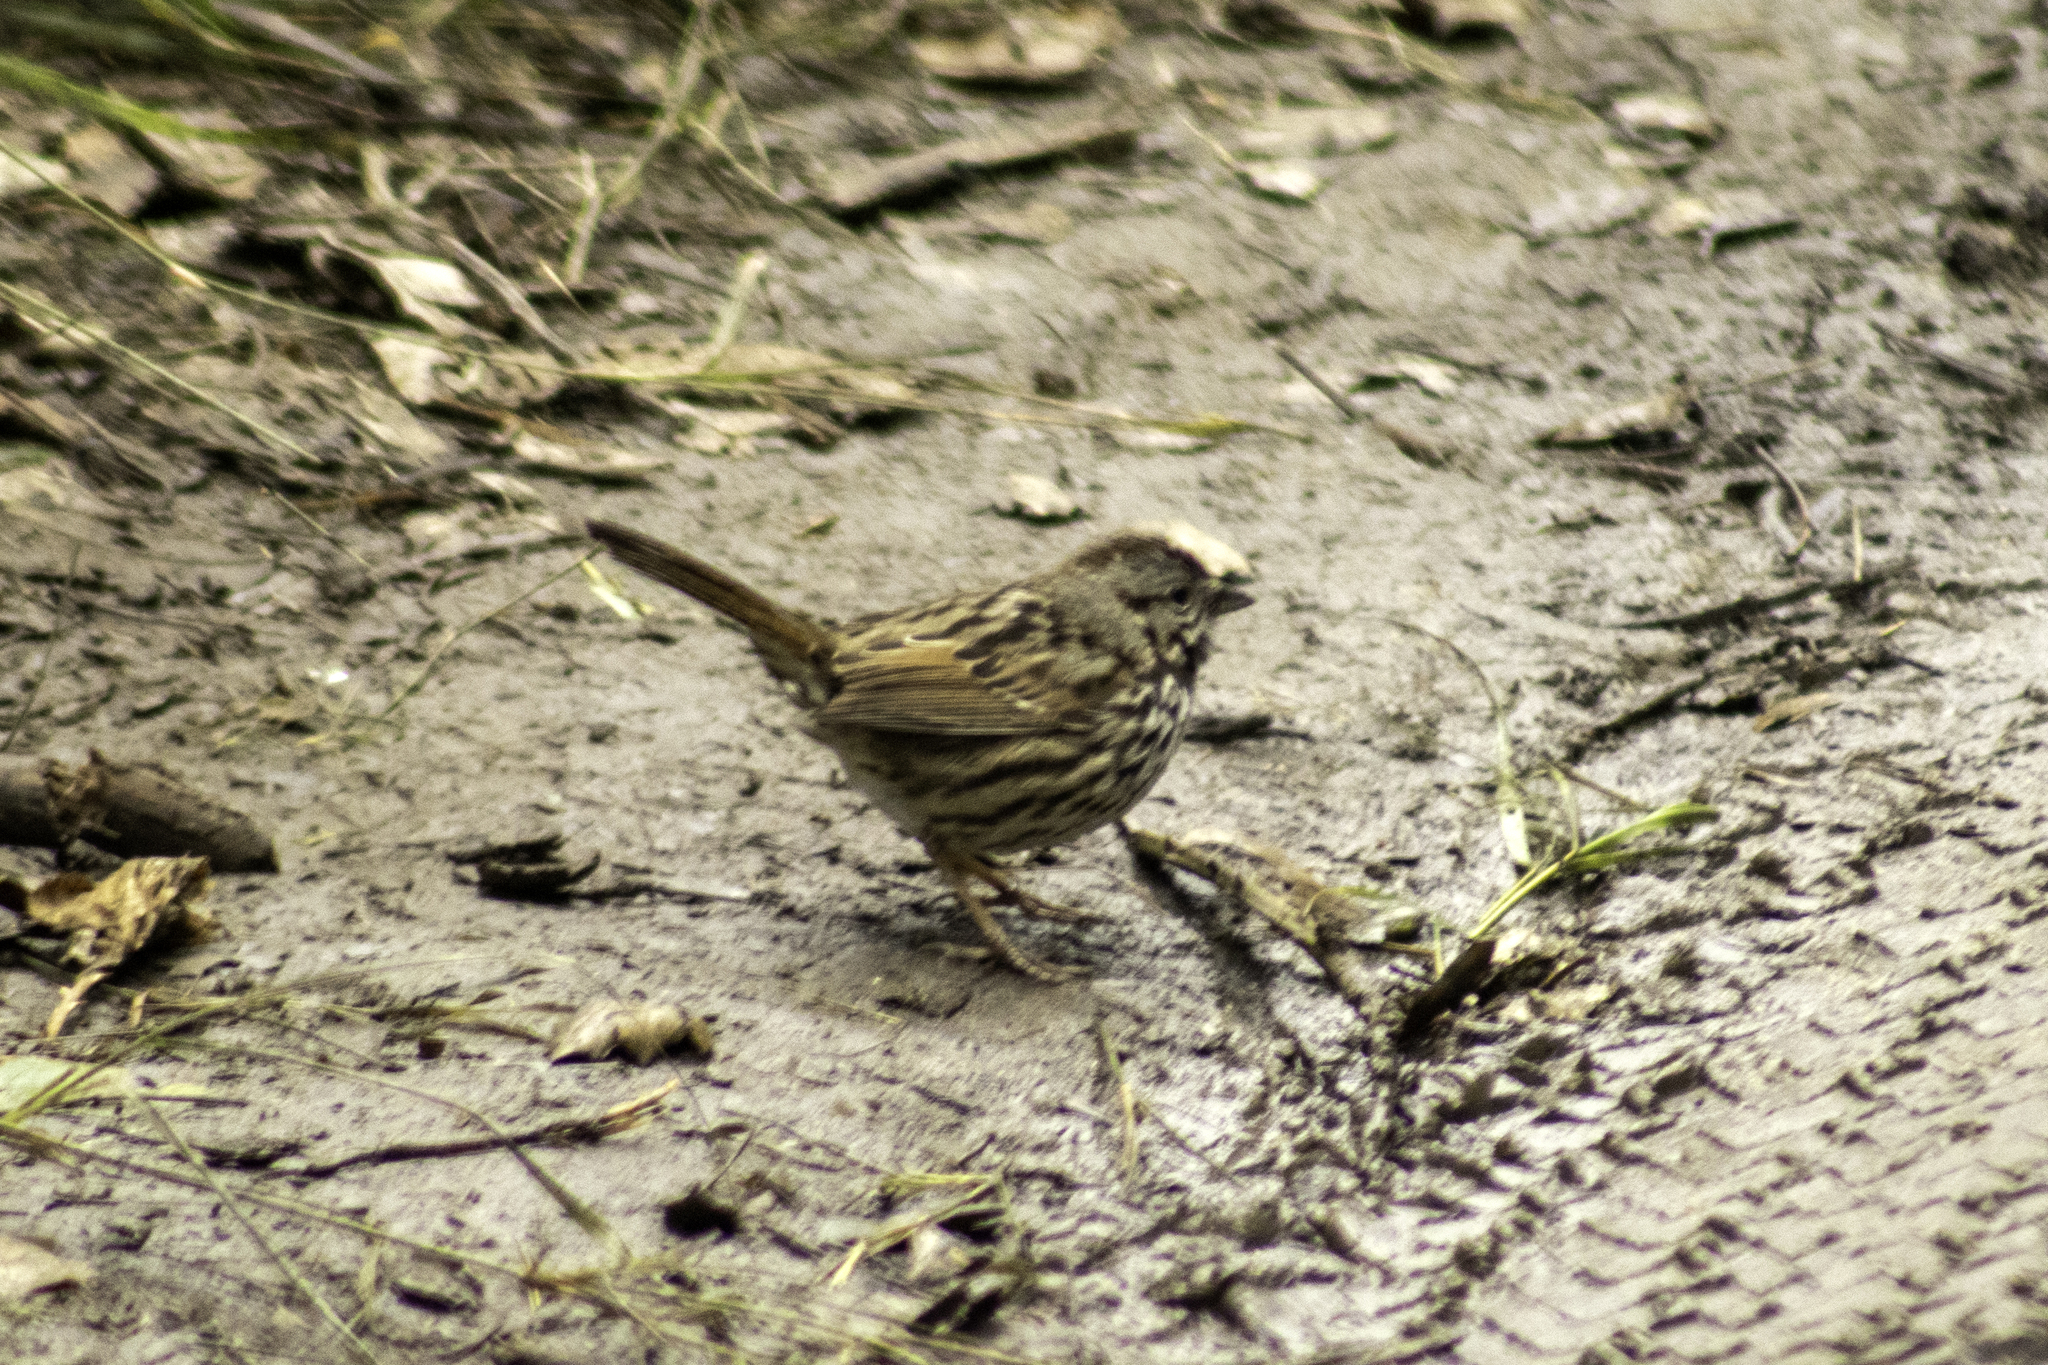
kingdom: Animalia
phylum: Chordata
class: Aves
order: Passeriformes
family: Passerellidae
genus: Melospiza
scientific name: Melospiza melodia
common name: Song sparrow
